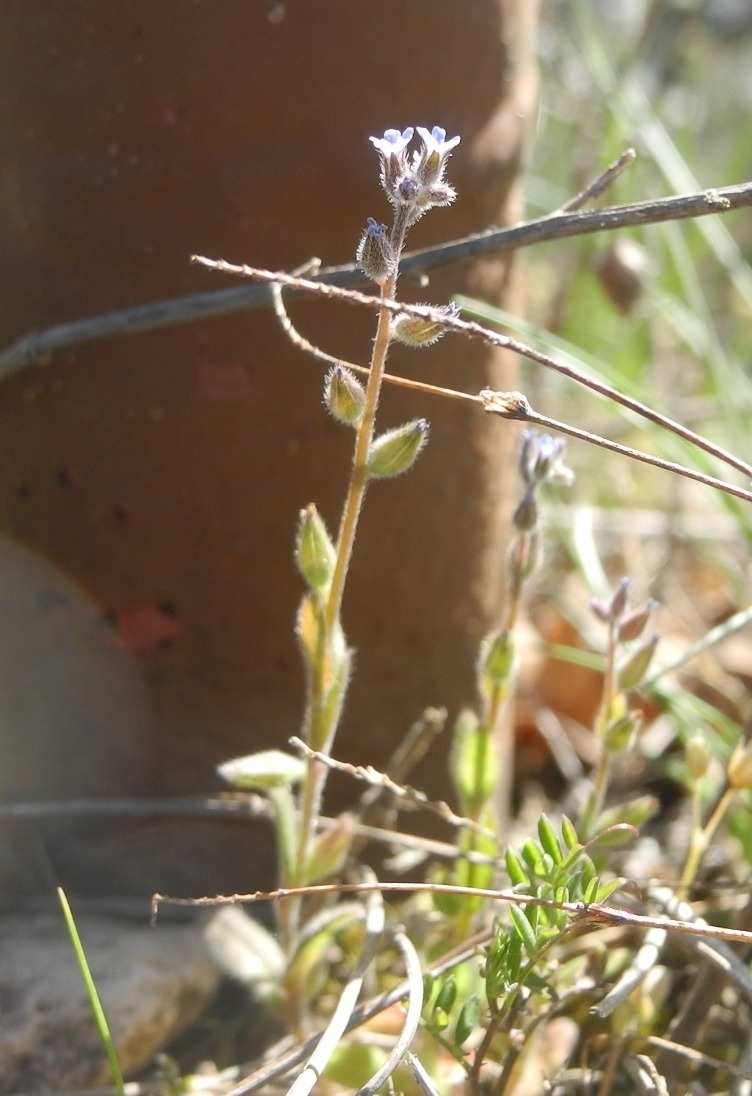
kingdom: Plantae
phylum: Tracheophyta
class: Magnoliopsida
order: Boraginales
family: Boraginaceae
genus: Myosotis
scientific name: Myosotis stricta
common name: Strict forget-me-not
